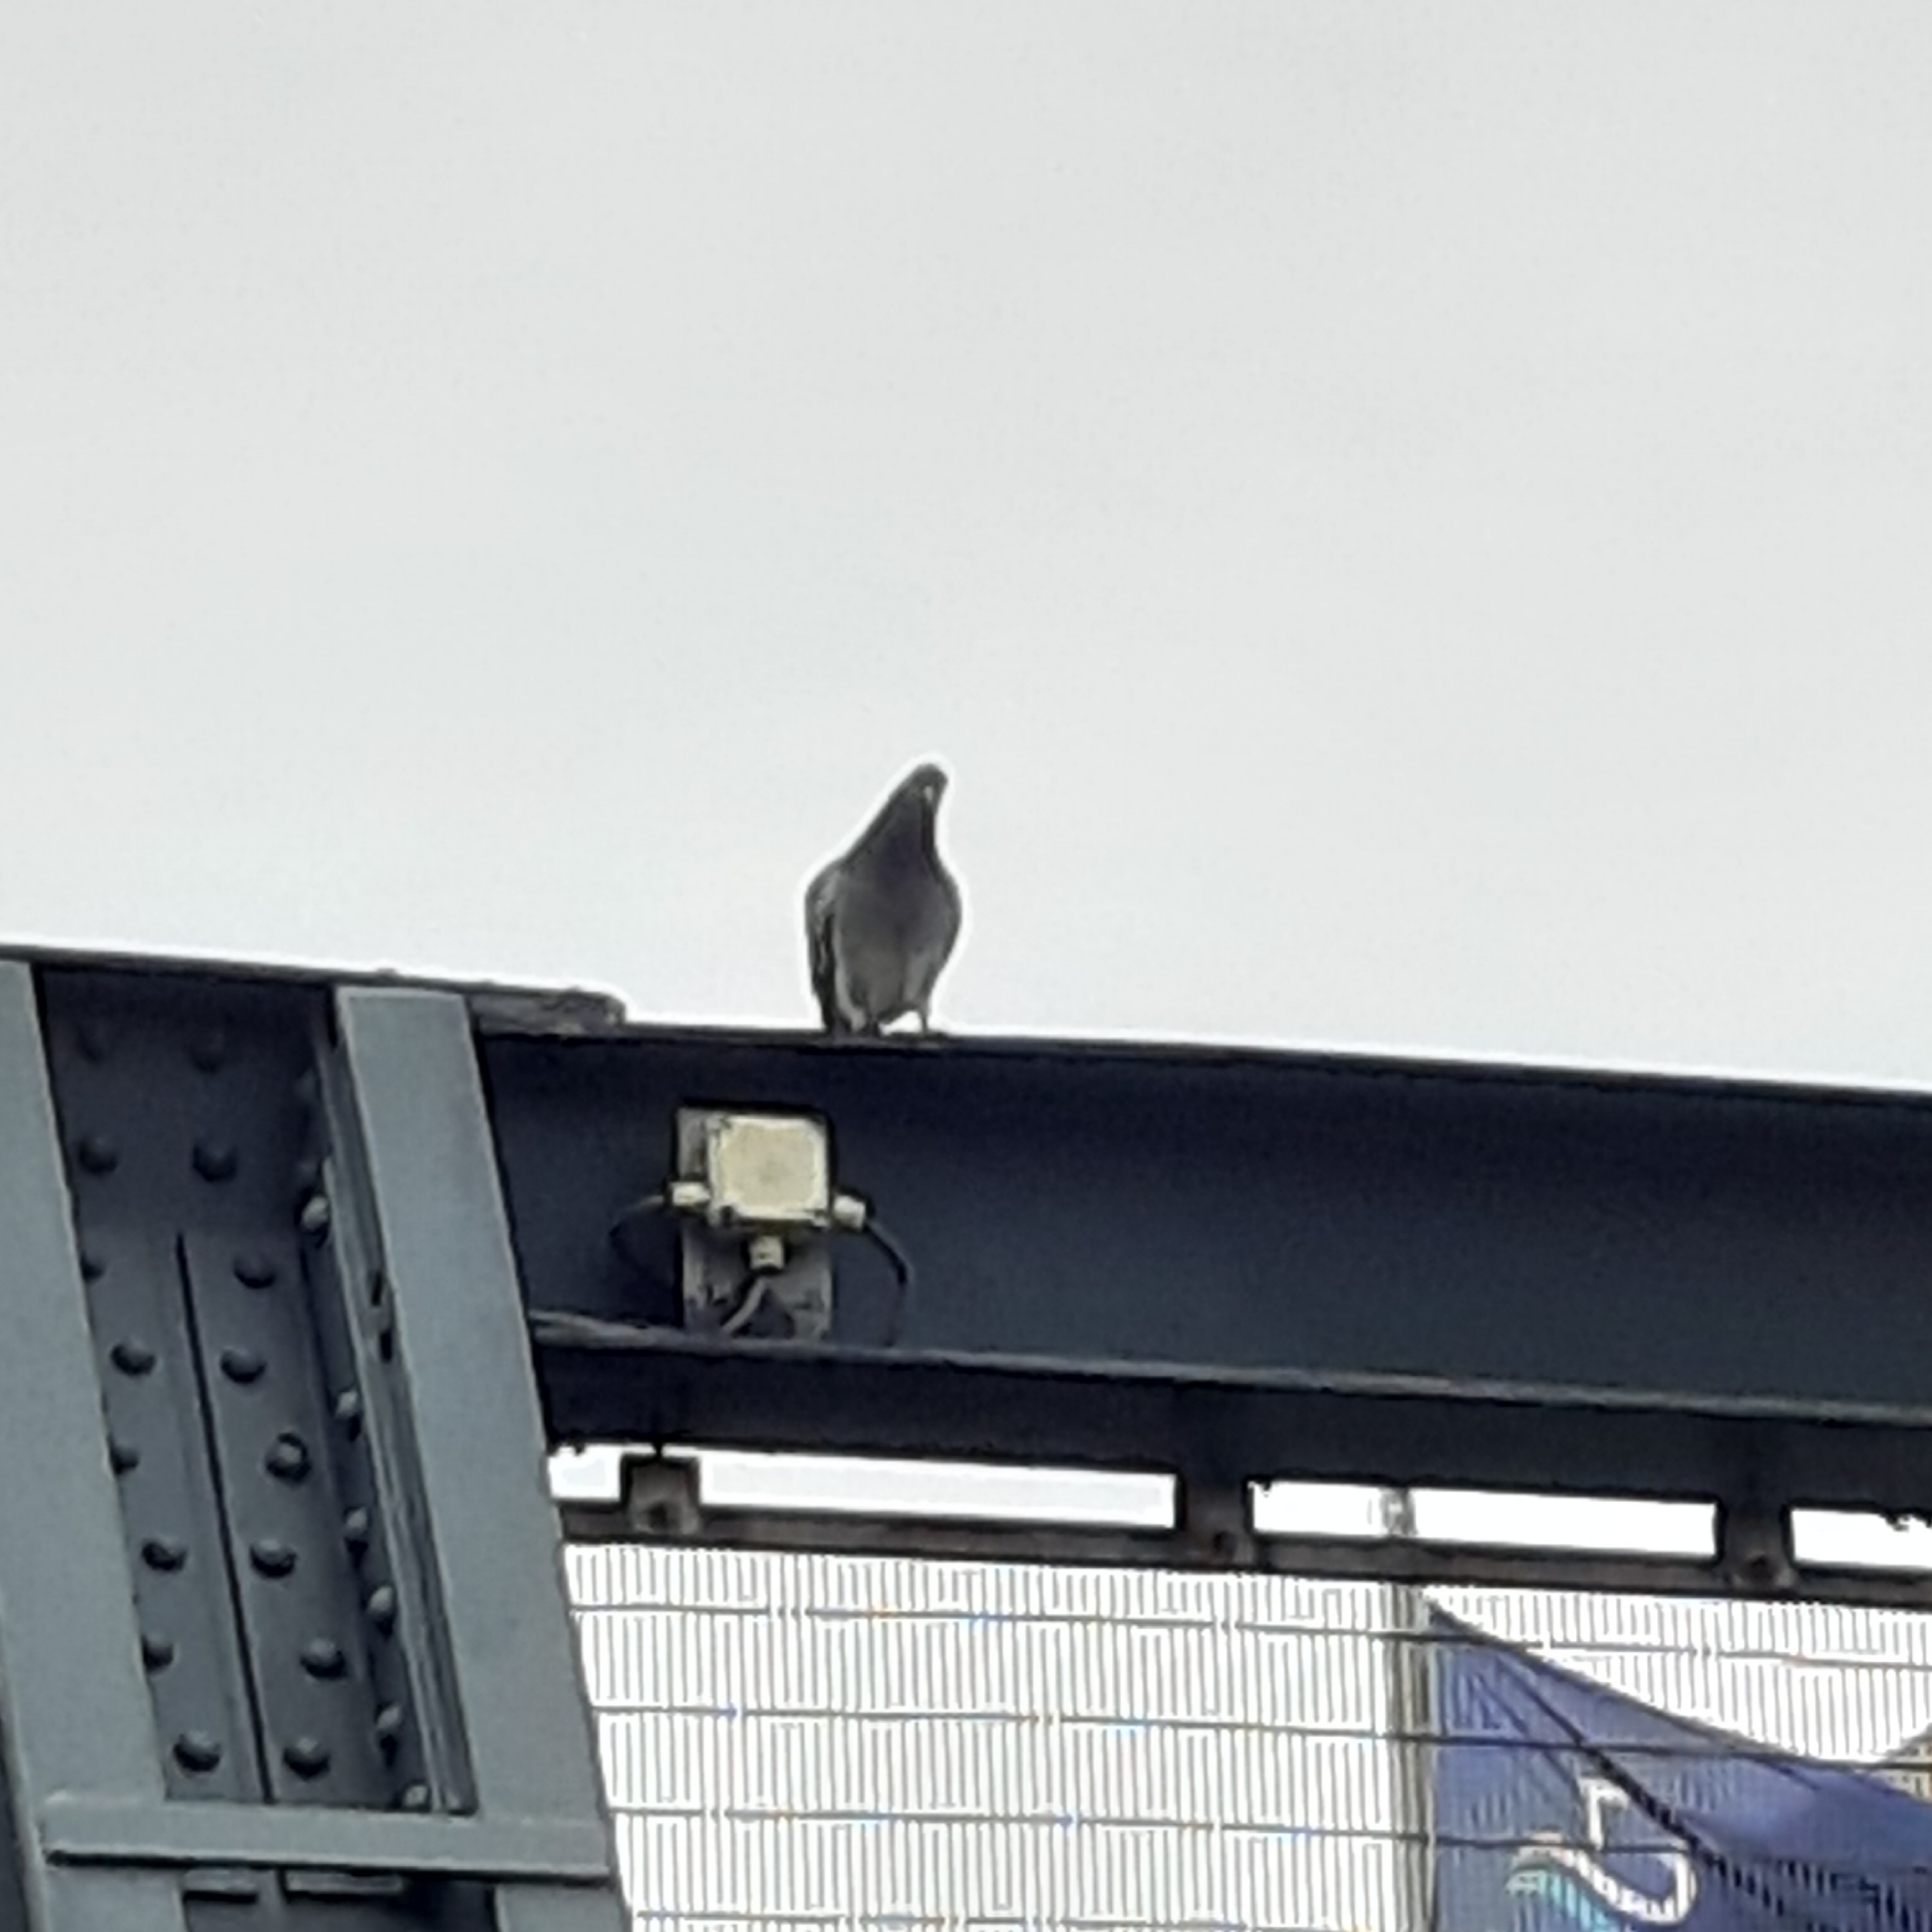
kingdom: Animalia
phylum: Chordata
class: Aves
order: Columbiformes
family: Columbidae
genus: Columba
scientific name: Columba livia
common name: Rock pigeon
